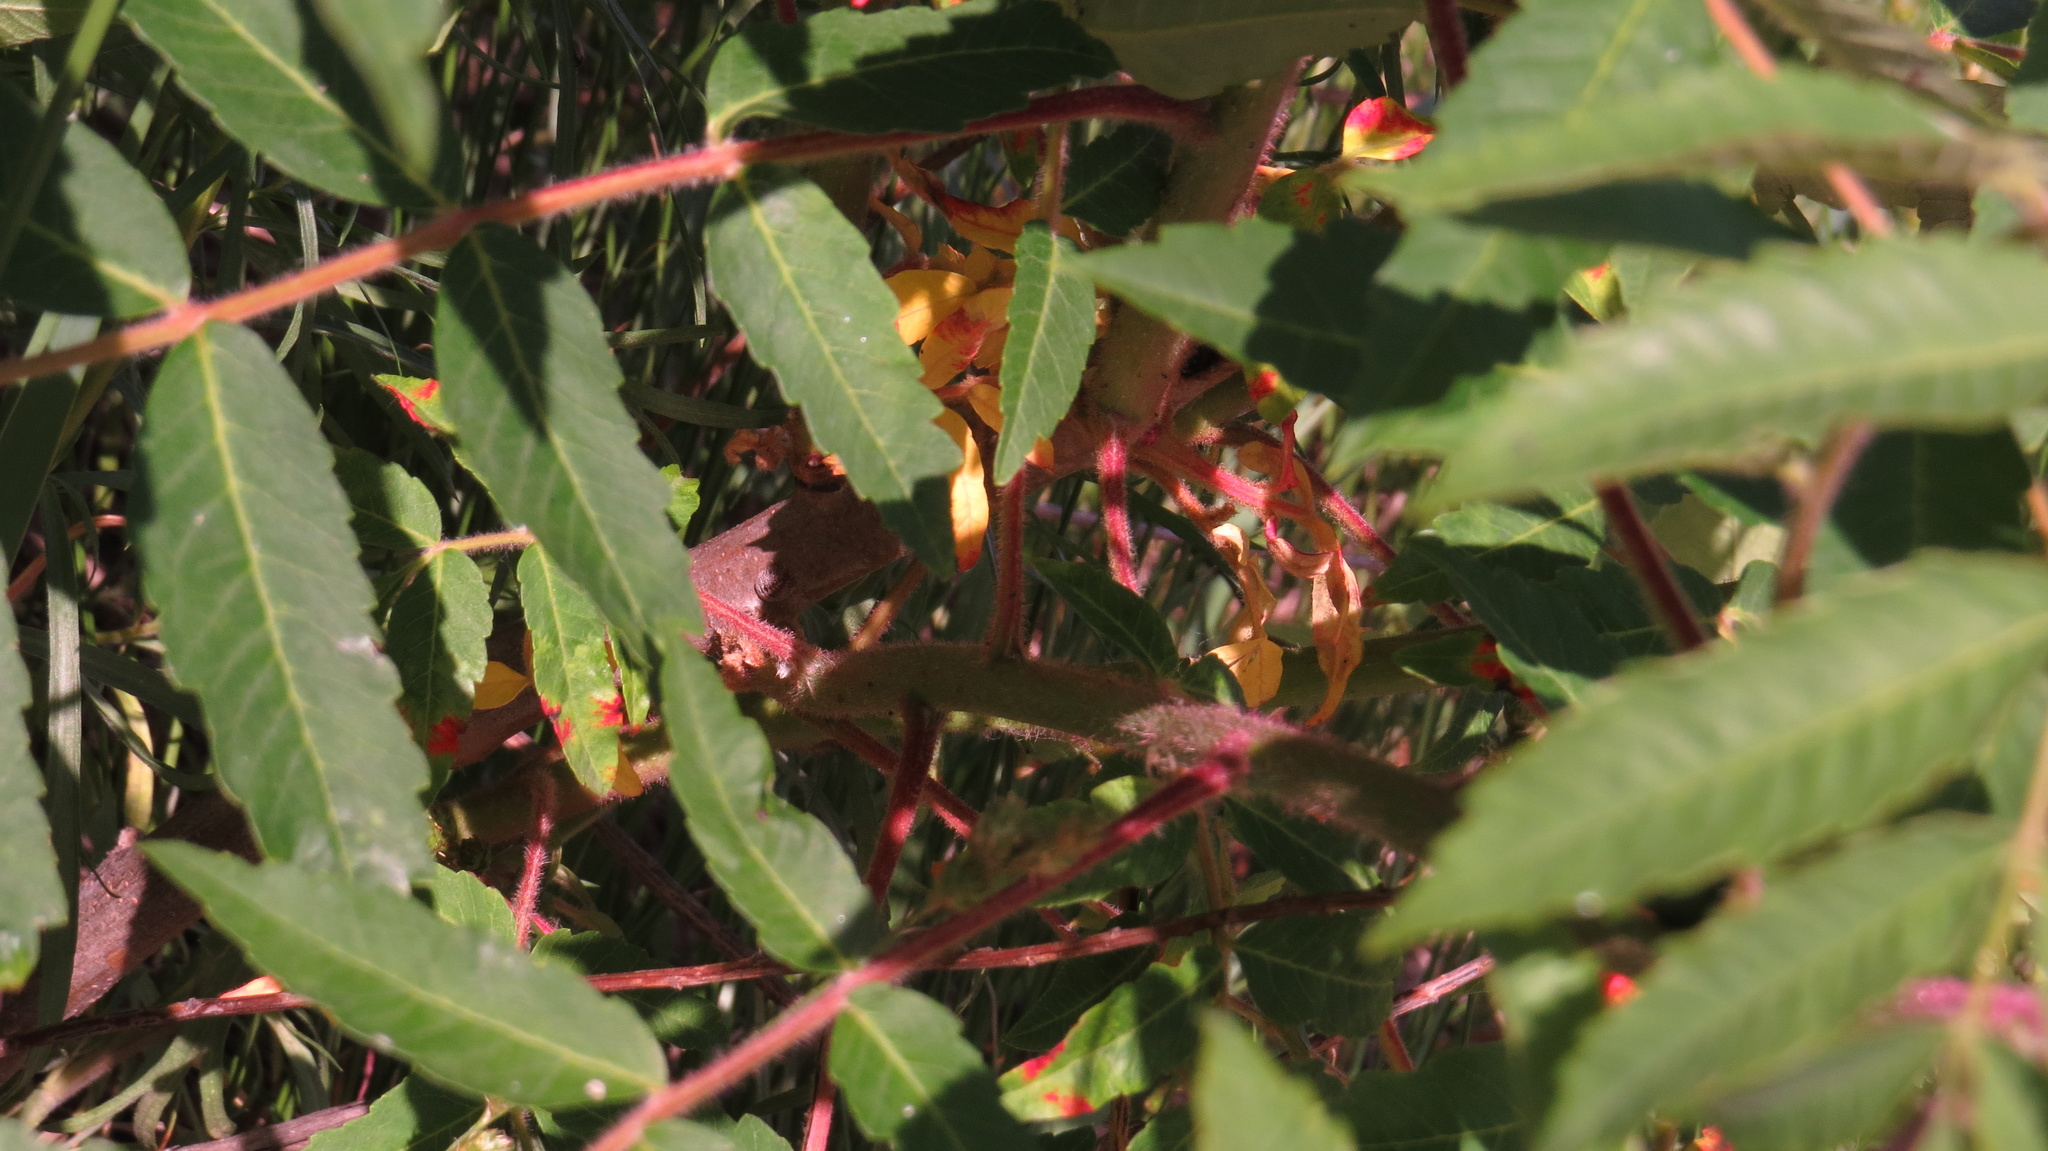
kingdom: Plantae
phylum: Tracheophyta
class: Magnoliopsida
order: Sapindales
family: Anacardiaceae
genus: Rhus
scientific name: Rhus typhina
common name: Staghorn sumac
